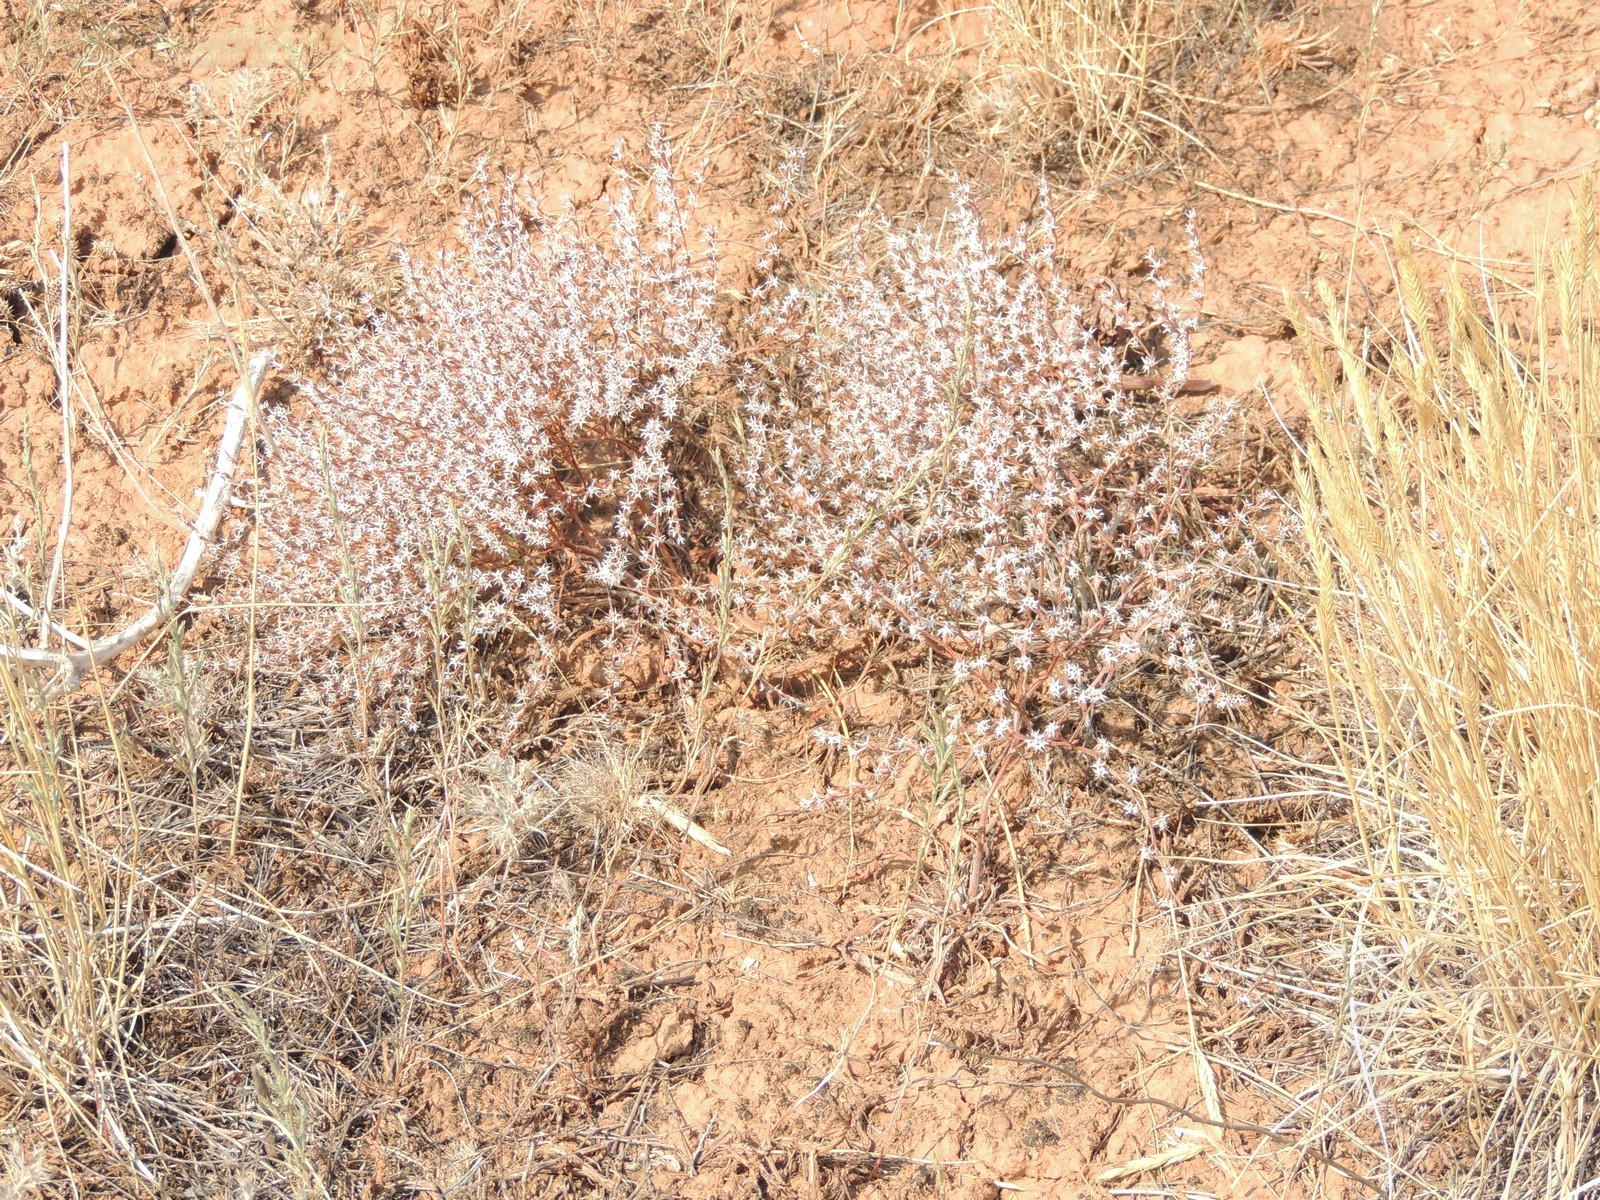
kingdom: Plantae
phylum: Tracheophyta
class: Magnoliopsida
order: Caryophyllales
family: Plumbaginaceae
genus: Goniolimon
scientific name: Goniolimon rubellum
